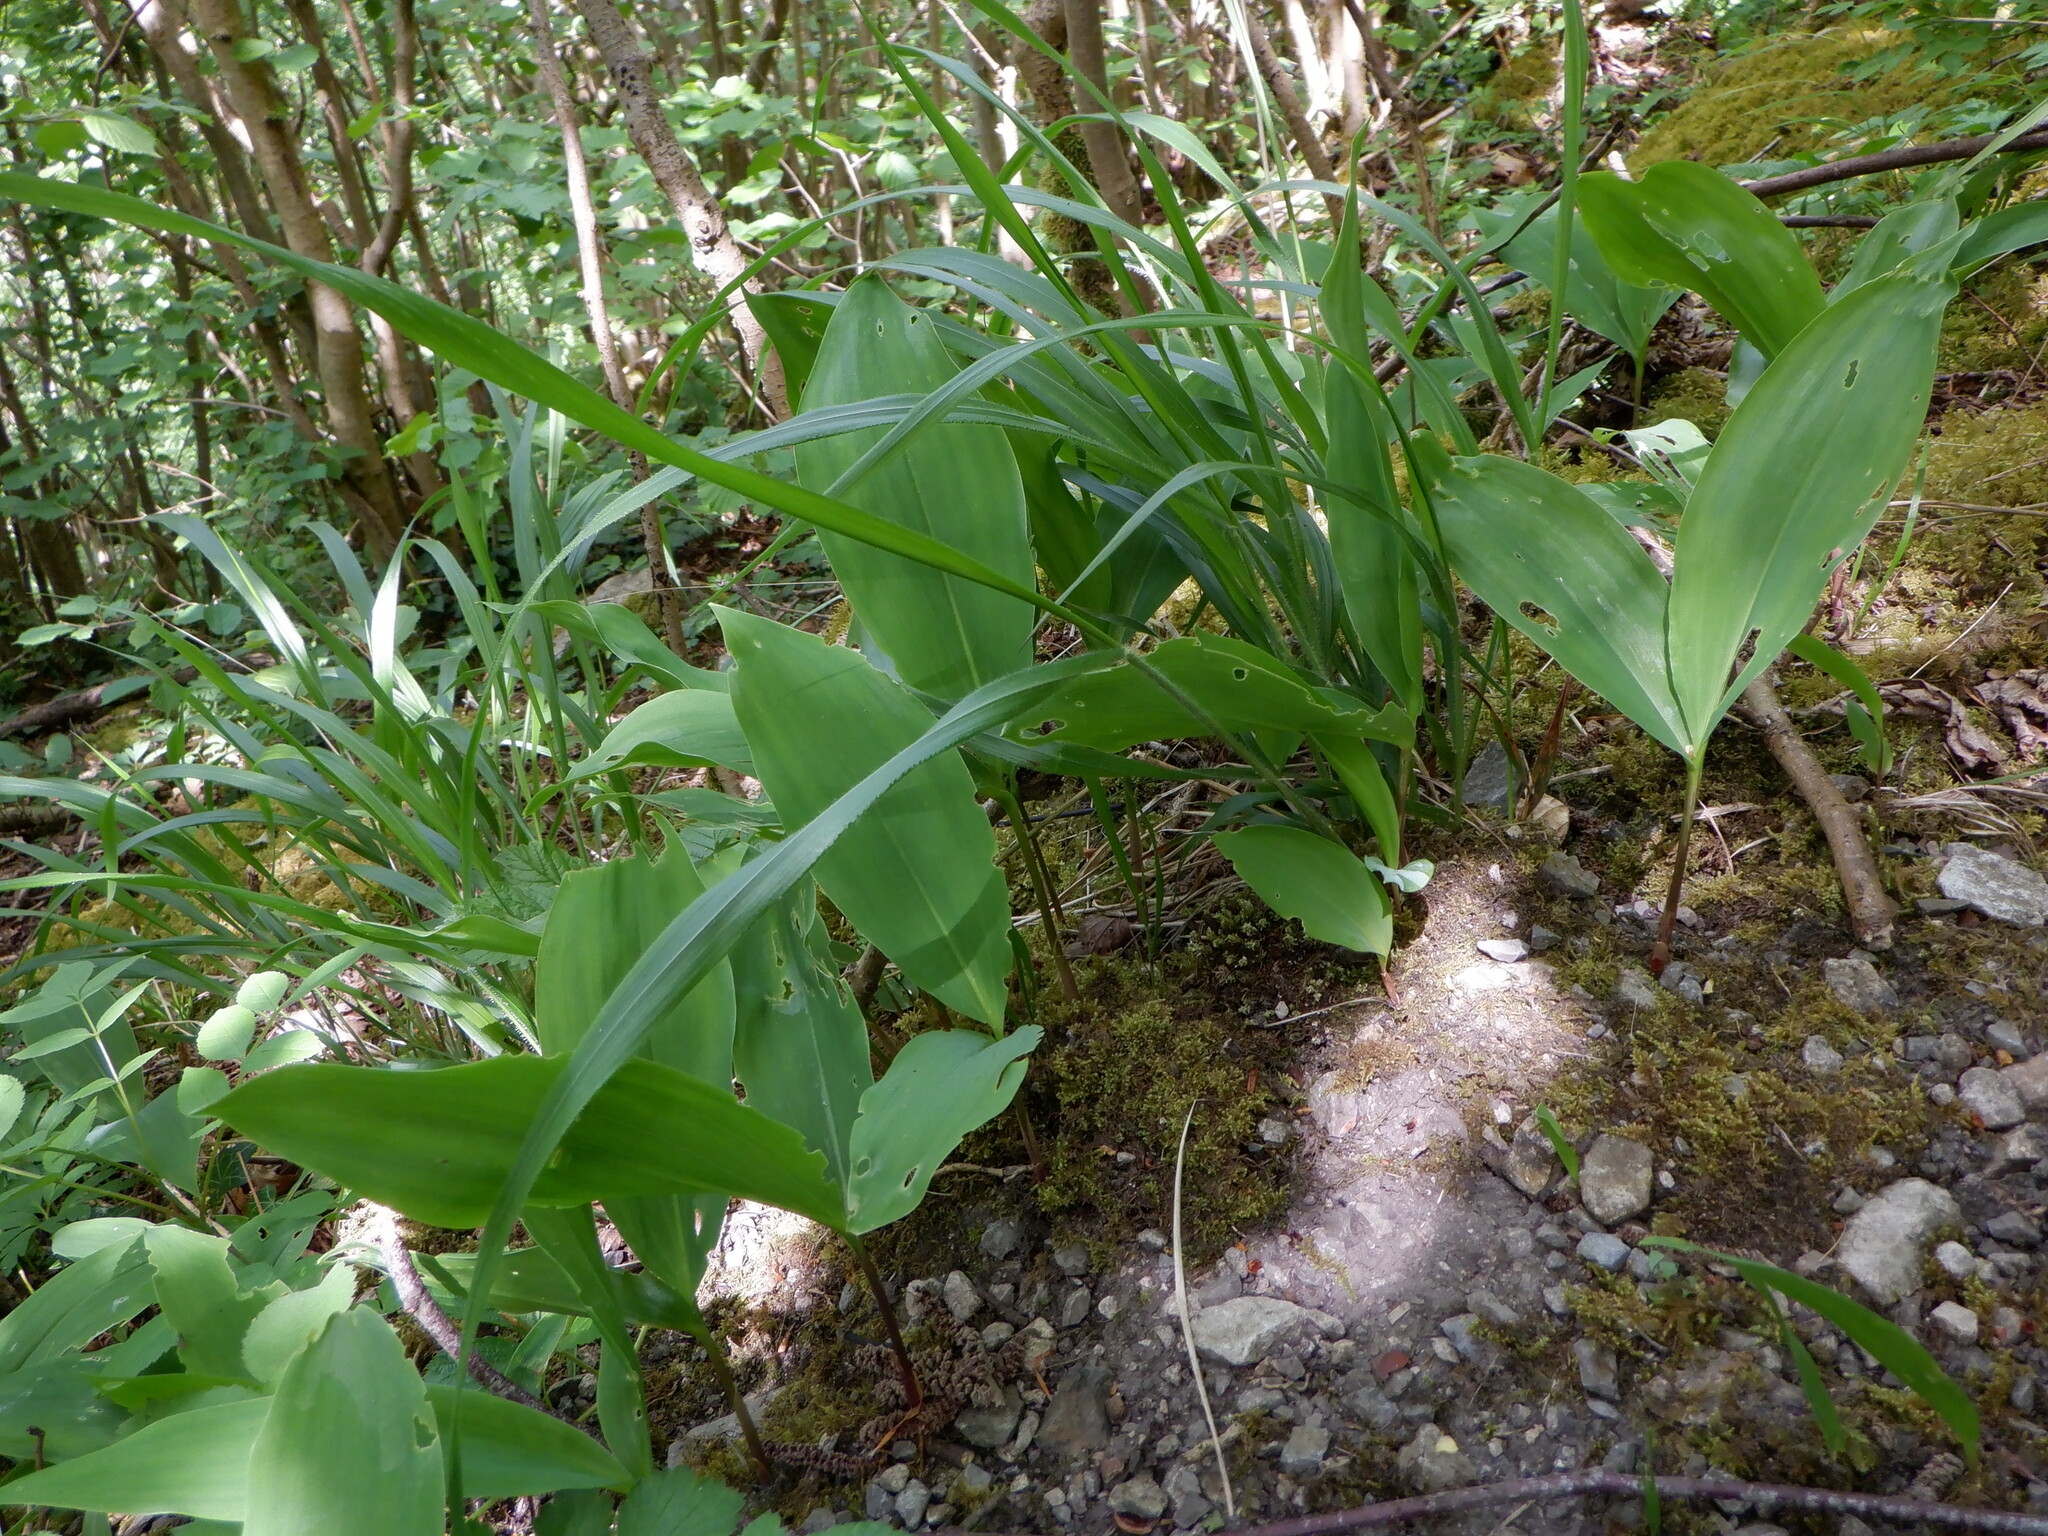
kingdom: Plantae
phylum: Tracheophyta
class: Liliopsida
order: Asparagales
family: Asparagaceae
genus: Convallaria
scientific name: Convallaria majalis
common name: Lily-of-the-valley
